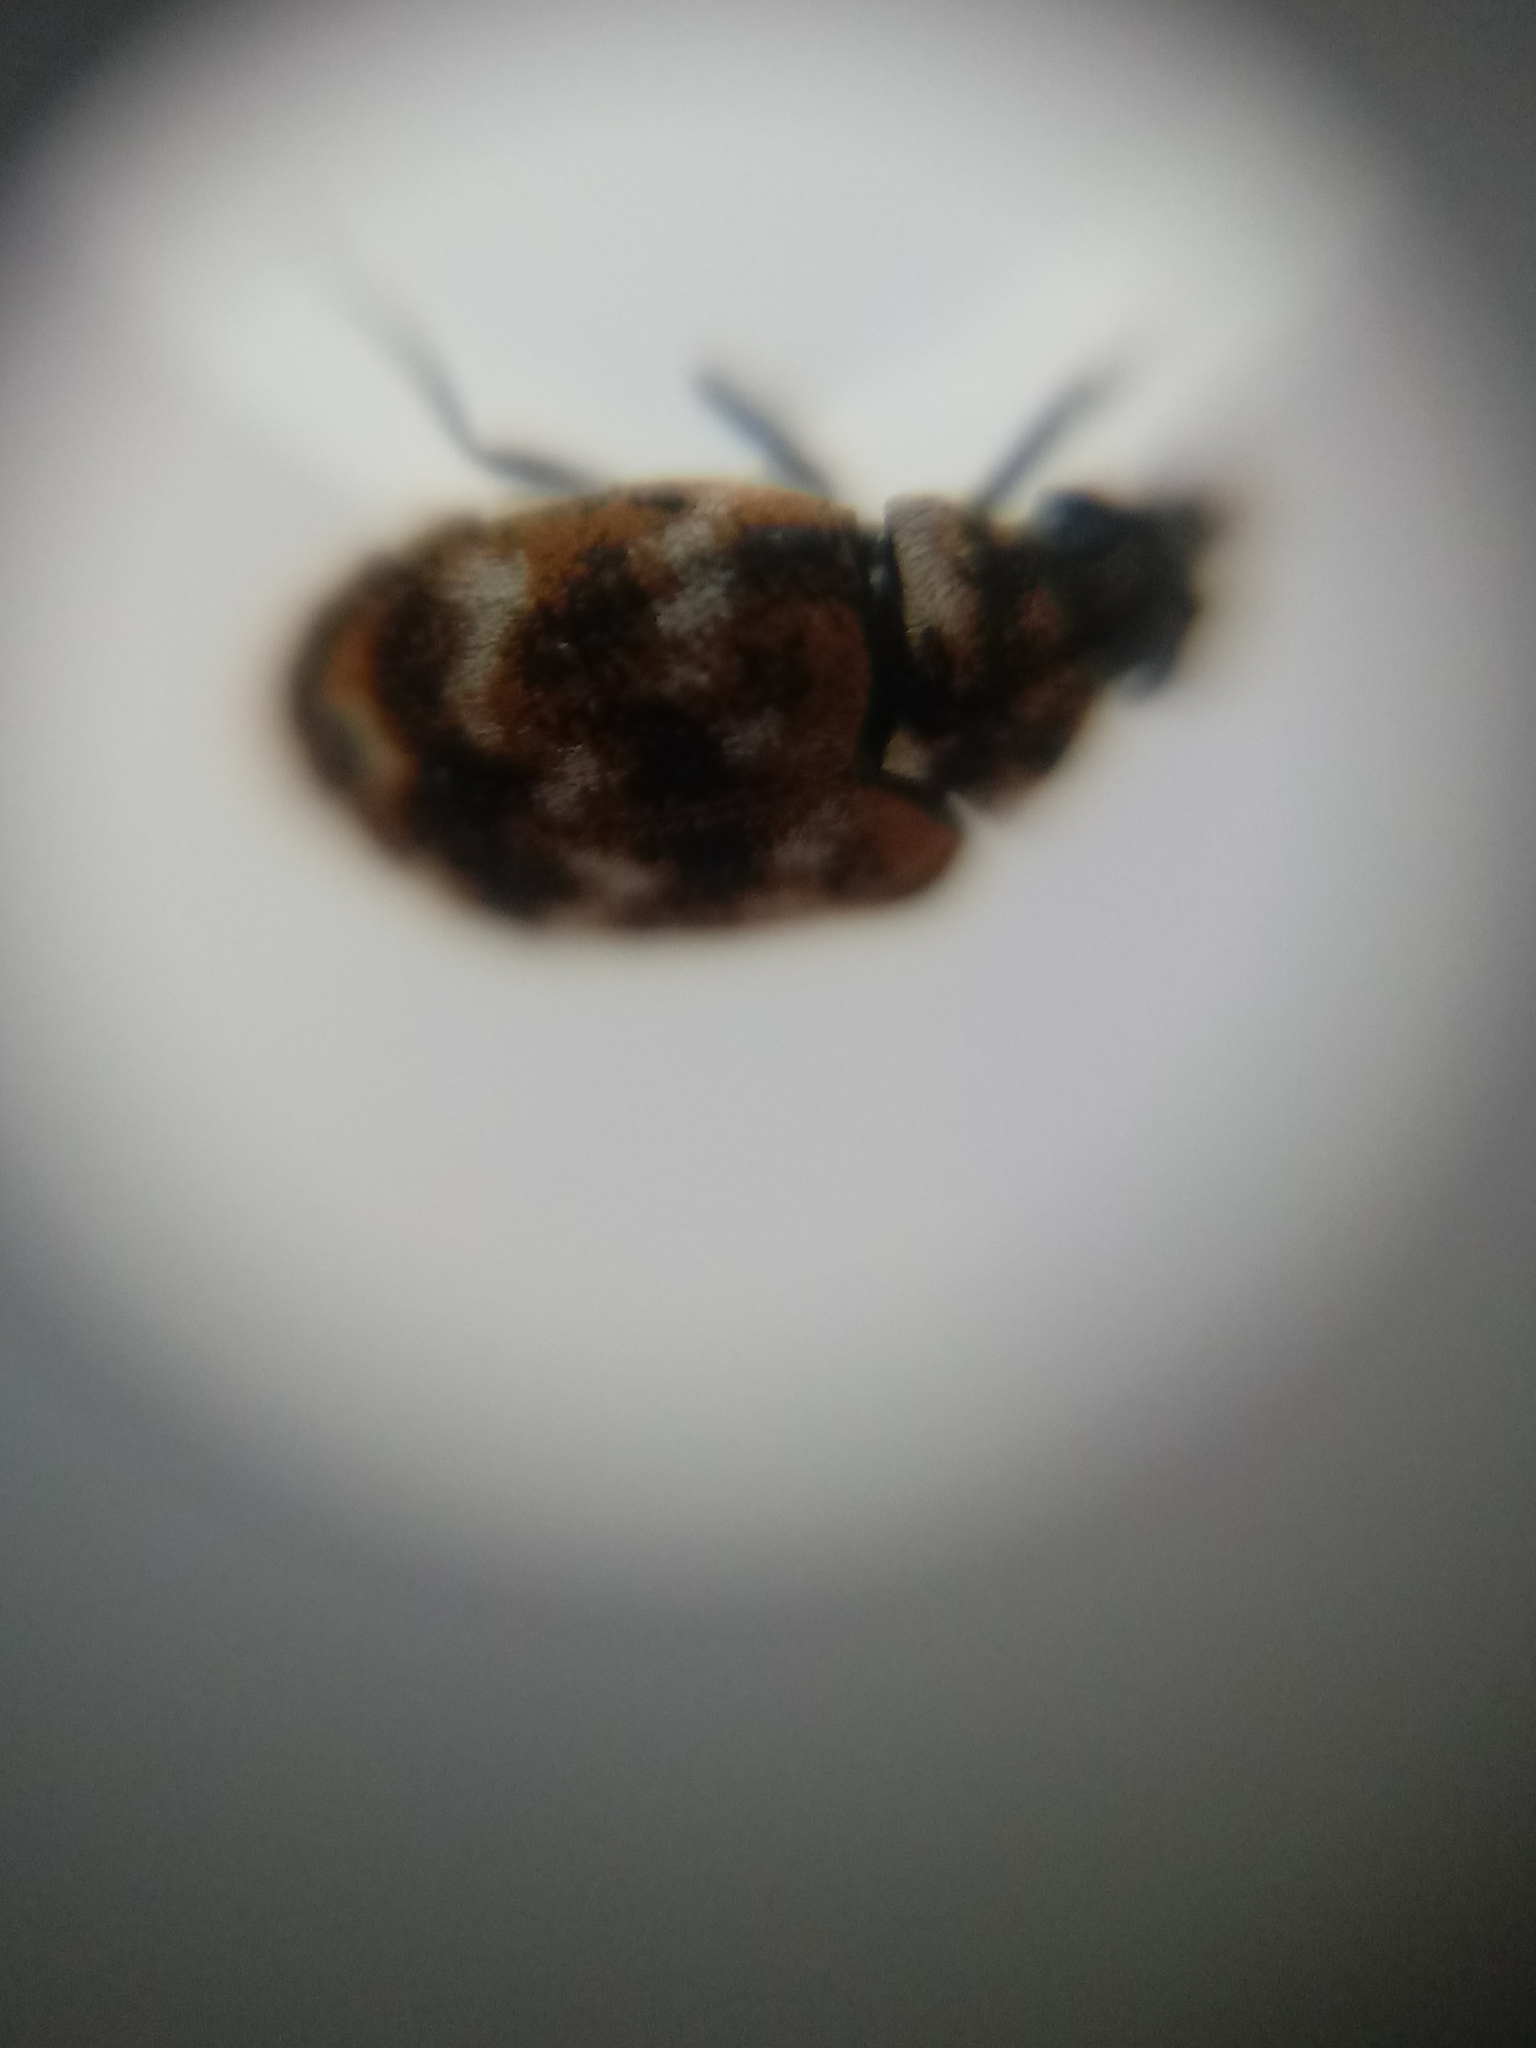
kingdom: Animalia
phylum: Arthropoda
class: Insecta
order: Coleoptera
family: Dermestidae
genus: Anthrenus
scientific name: Anthrenus verbasci
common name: Varied carpet beetle
